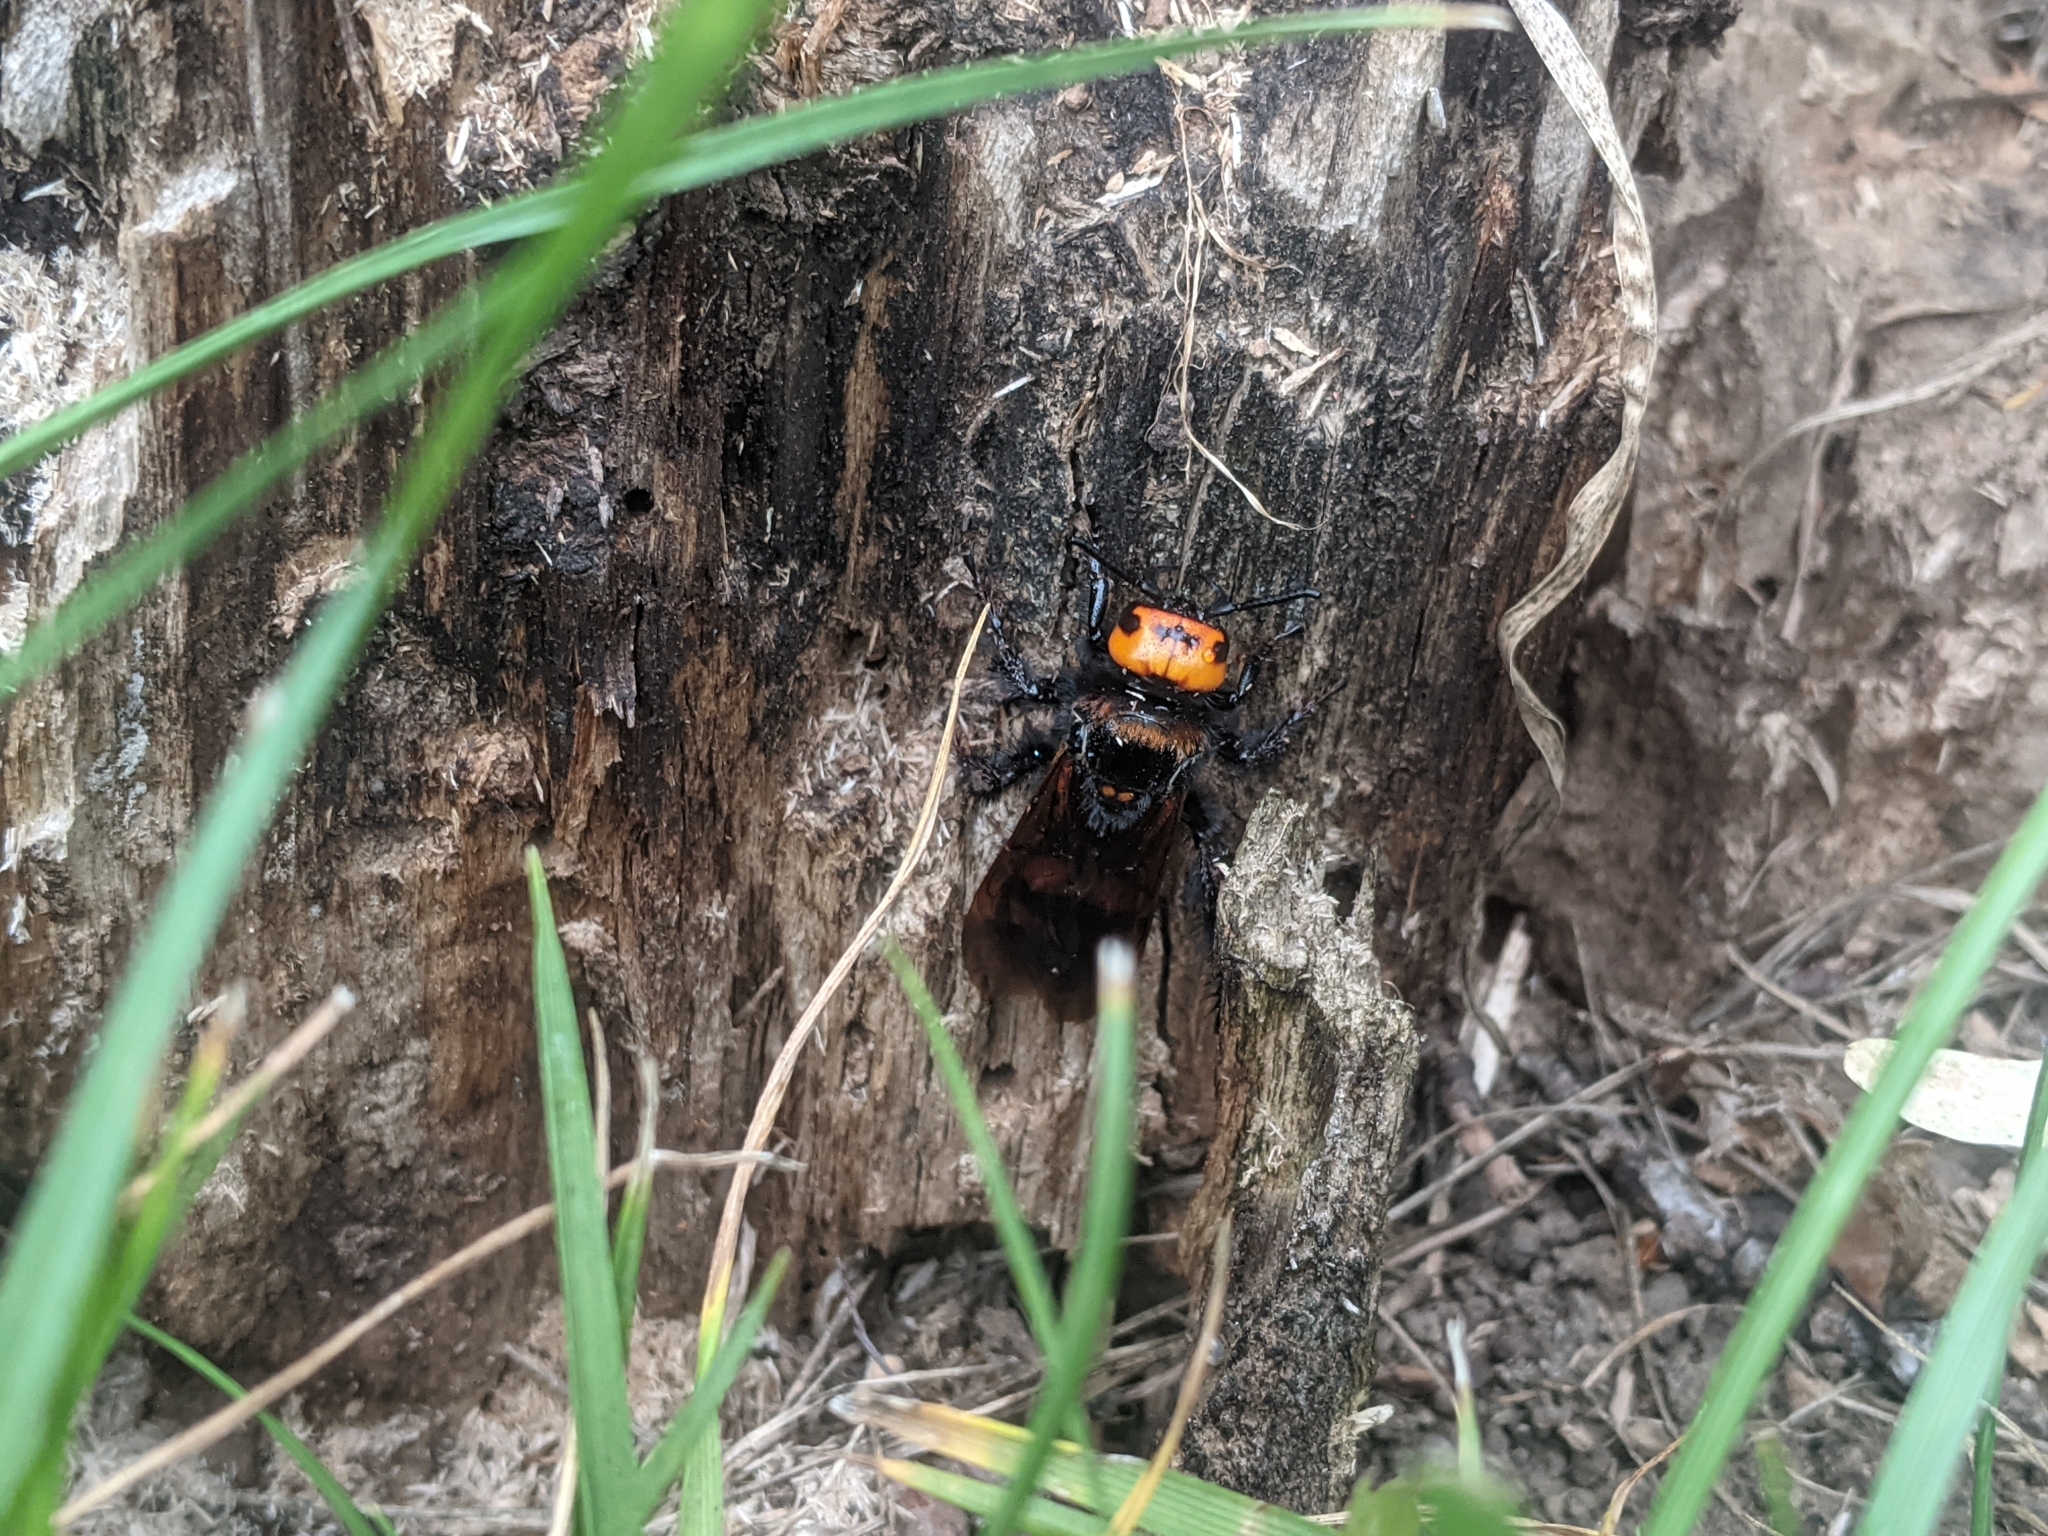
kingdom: Animalia
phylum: Arthropoda
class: Insecta
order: Hymenoptera
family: Scoliidae
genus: Megascolia
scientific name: Megascolia maculata
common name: Mammoth wasp
